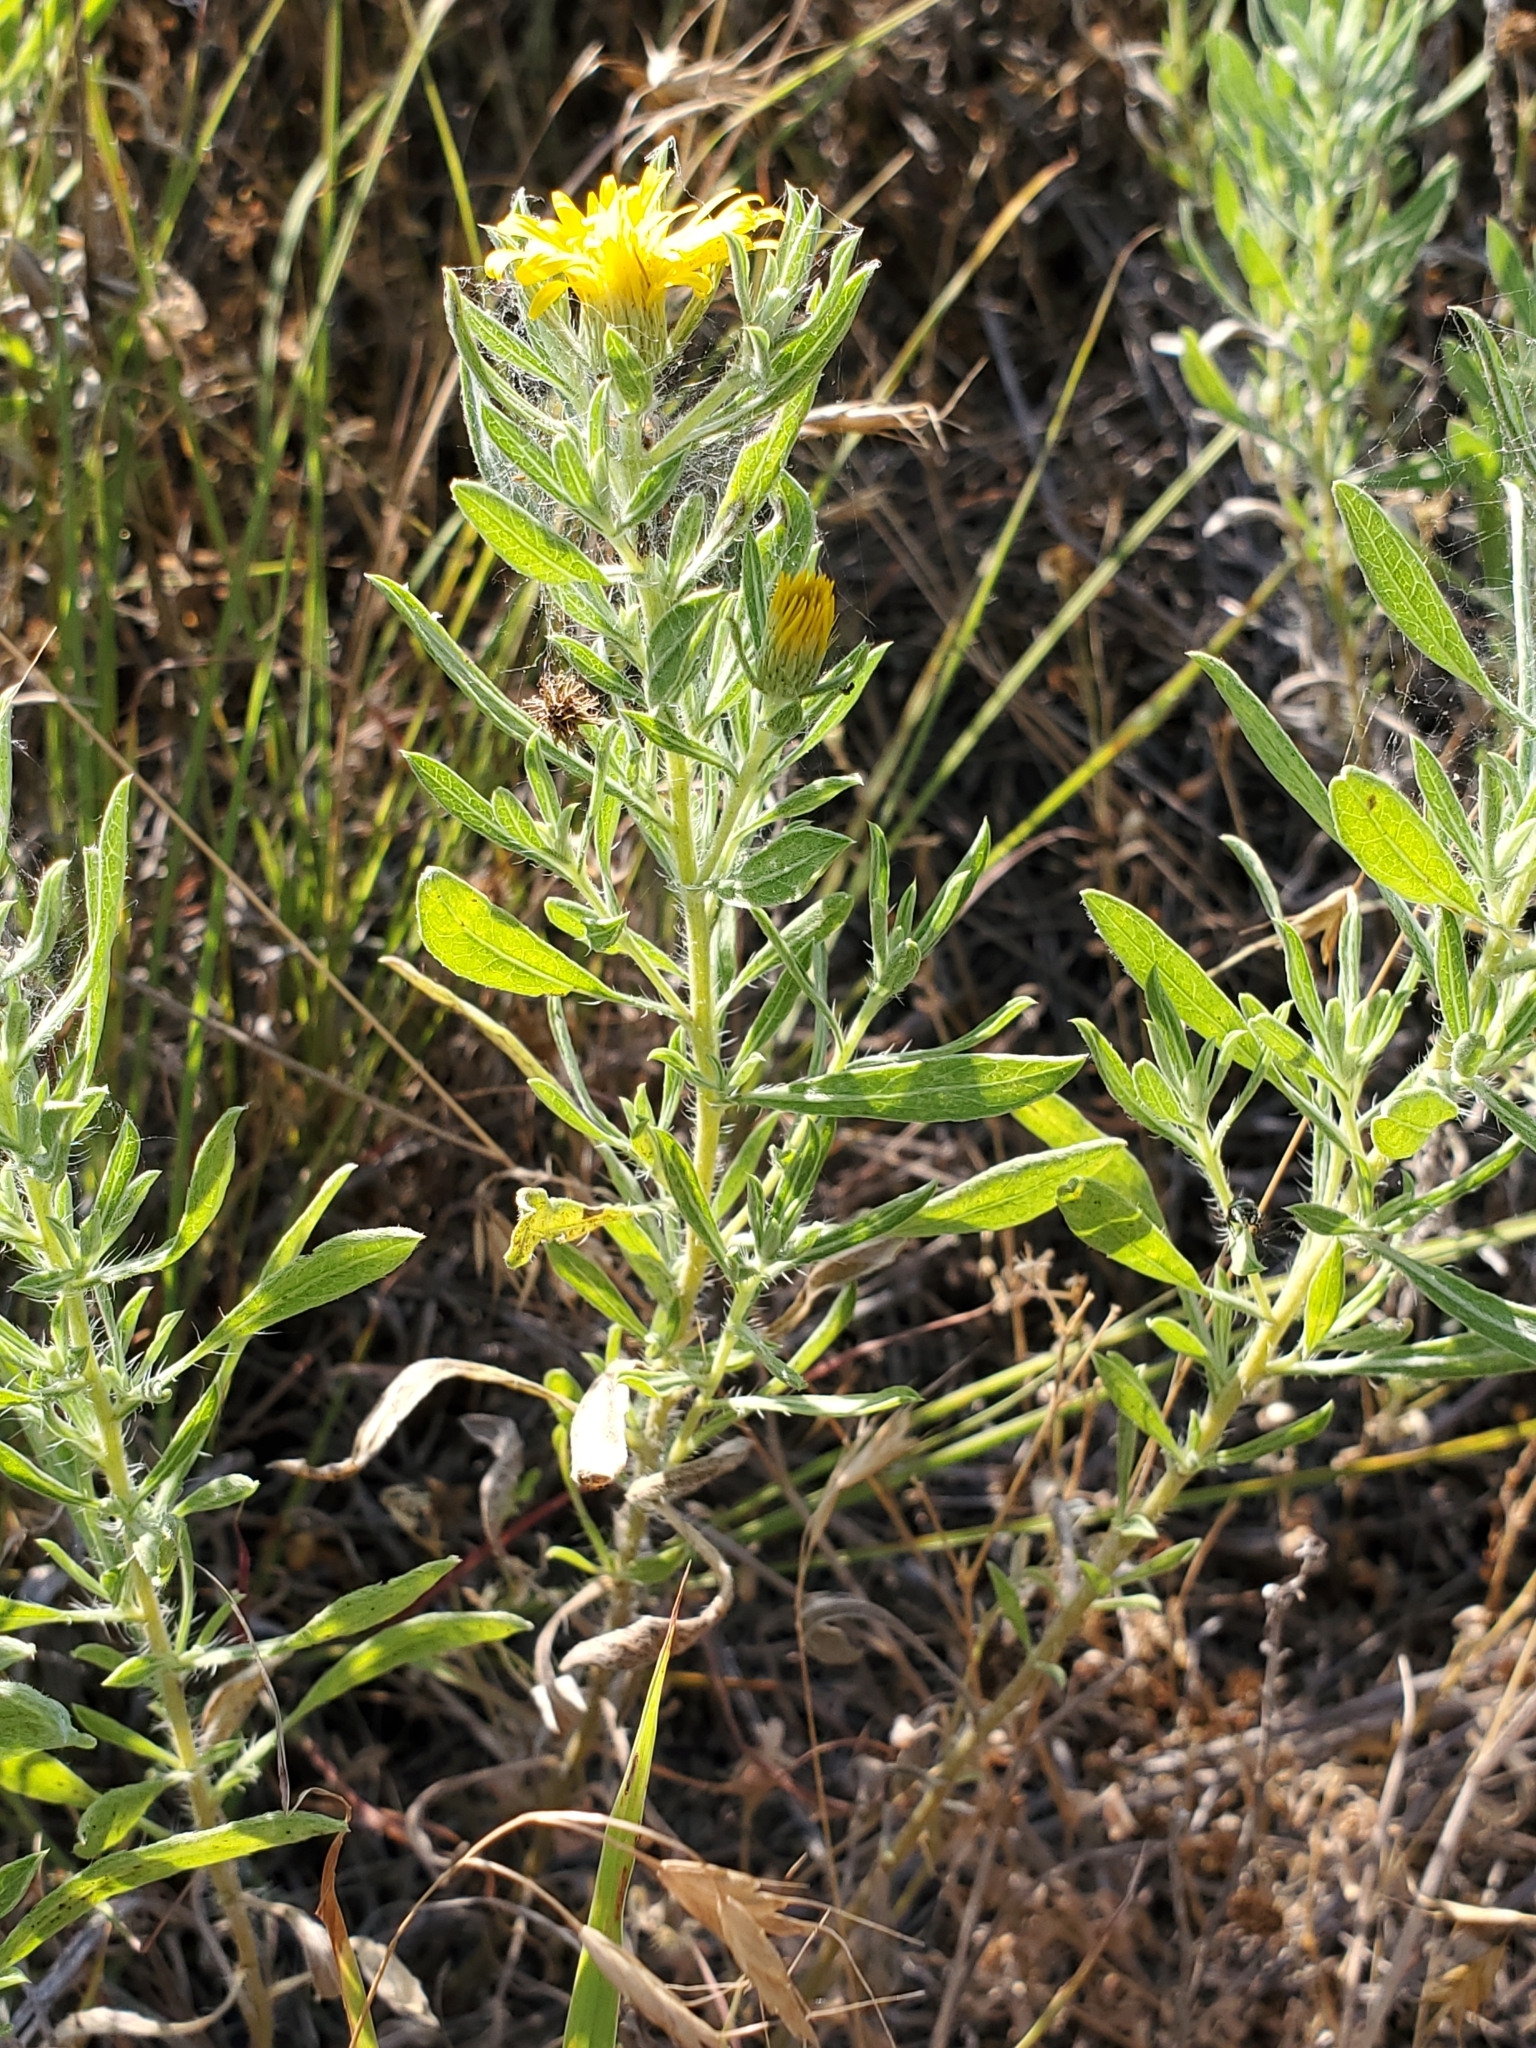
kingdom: Plantae
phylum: Tracheophyta
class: Magnoliopsida
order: Asterales
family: Asteraceae
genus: Heterotheca
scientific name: Heterotheca angustifolia
